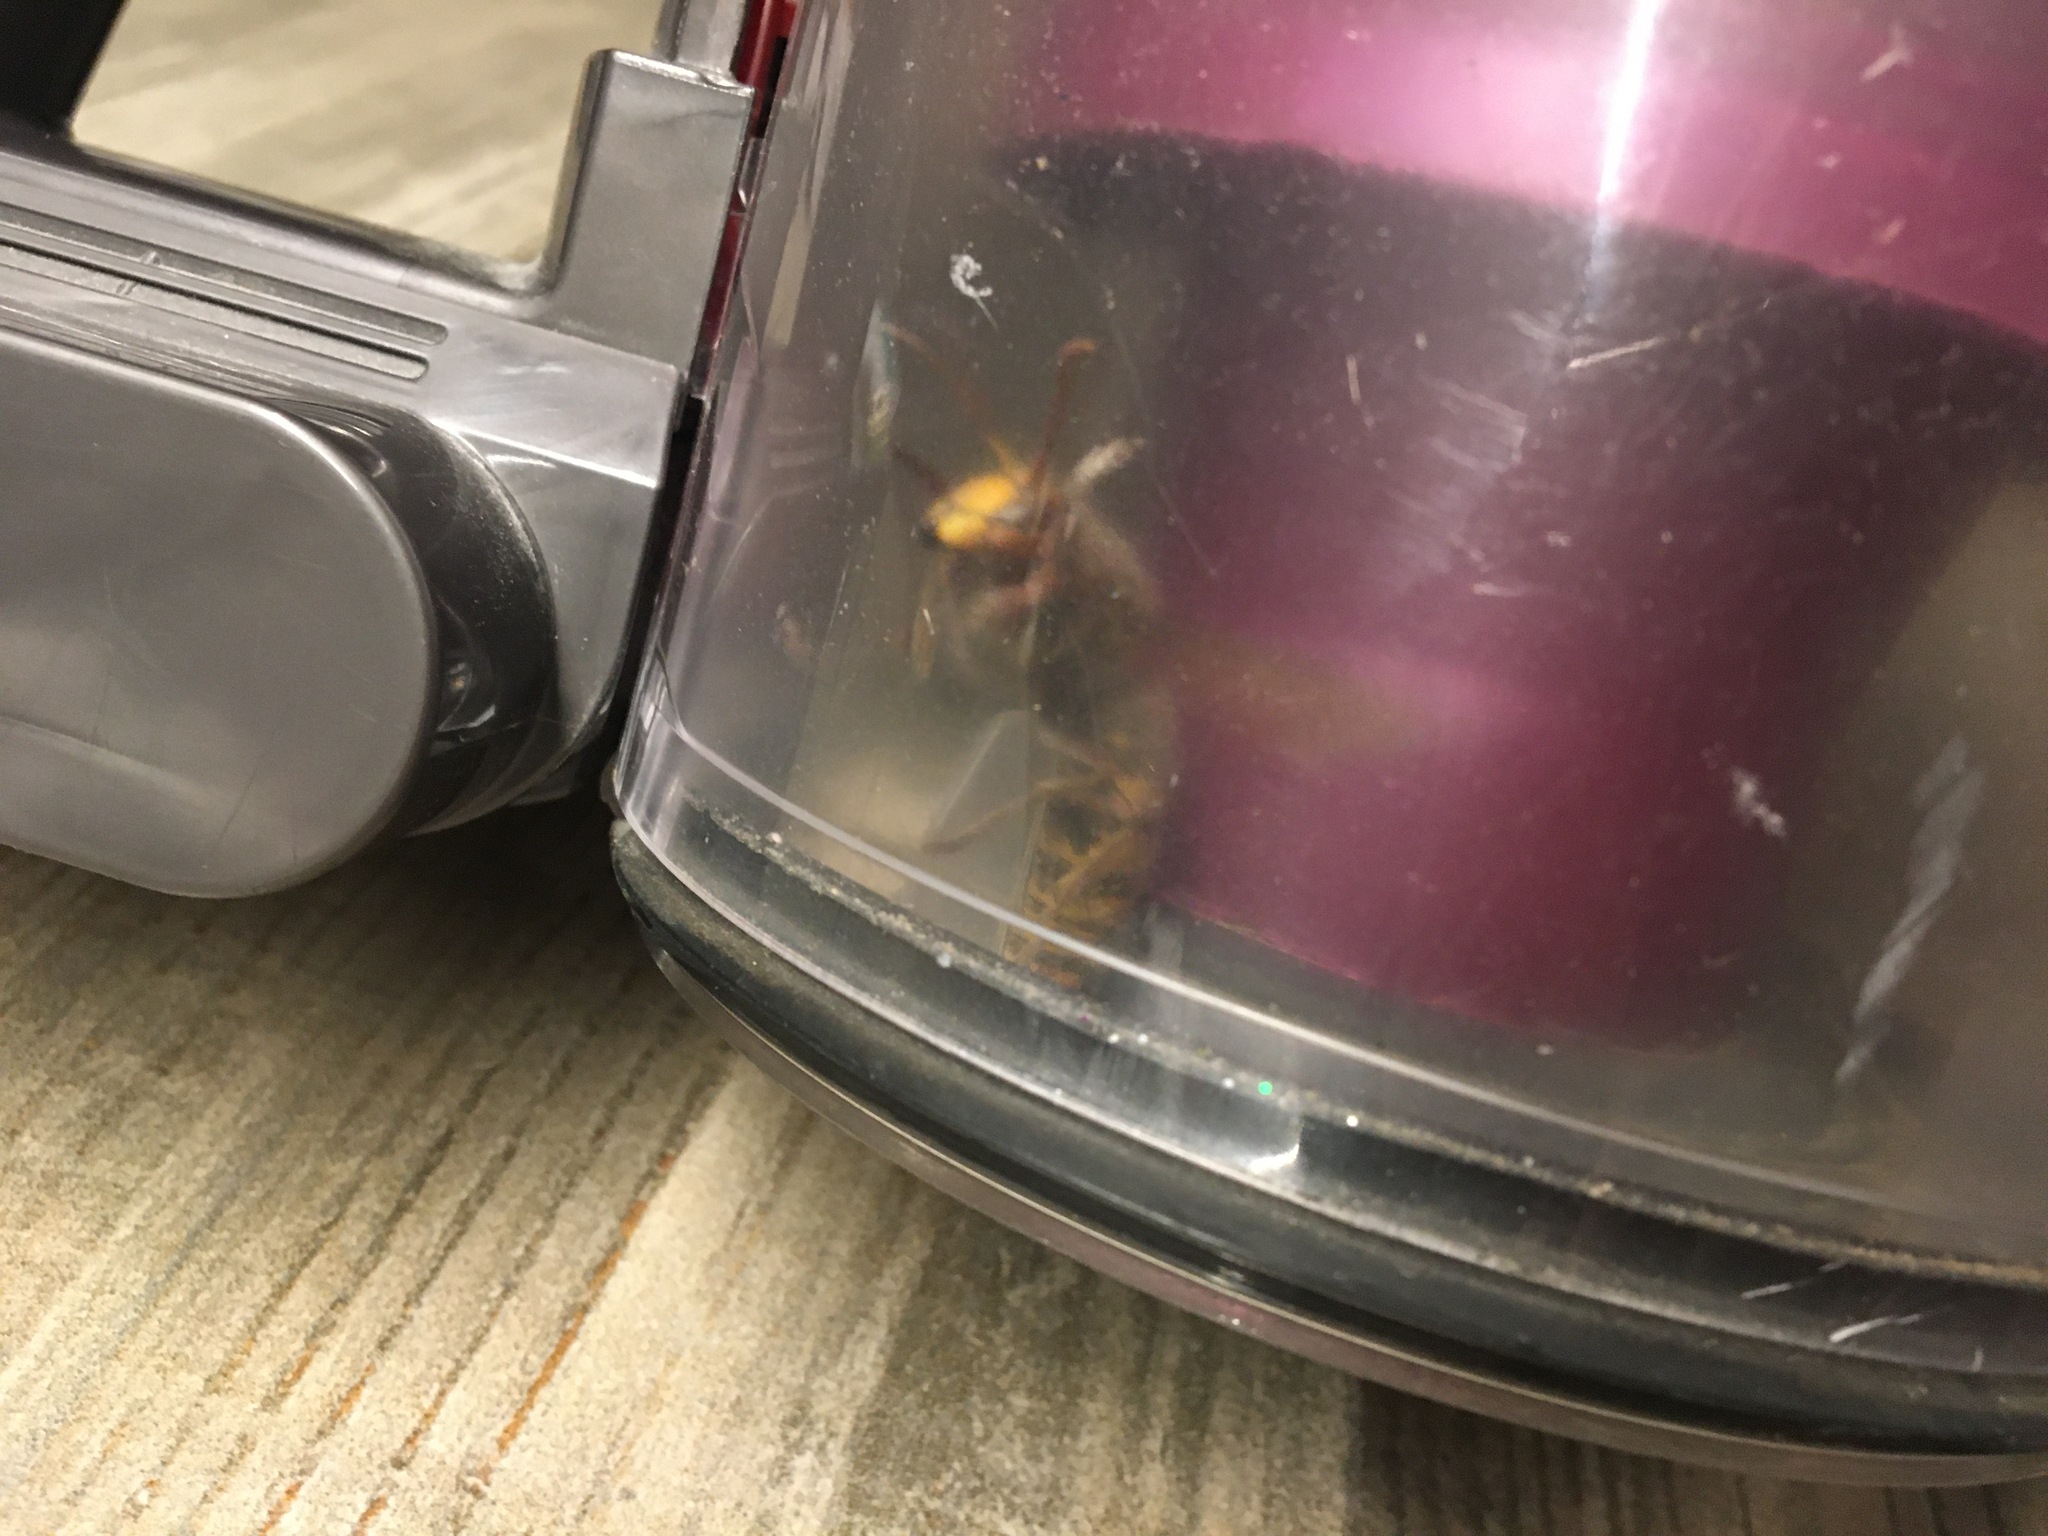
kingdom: Animalia
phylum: Arthropoda
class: Insecta
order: Hymenoptera
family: Vespidae
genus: Vespa
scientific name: Vespa crabro
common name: Hornet
